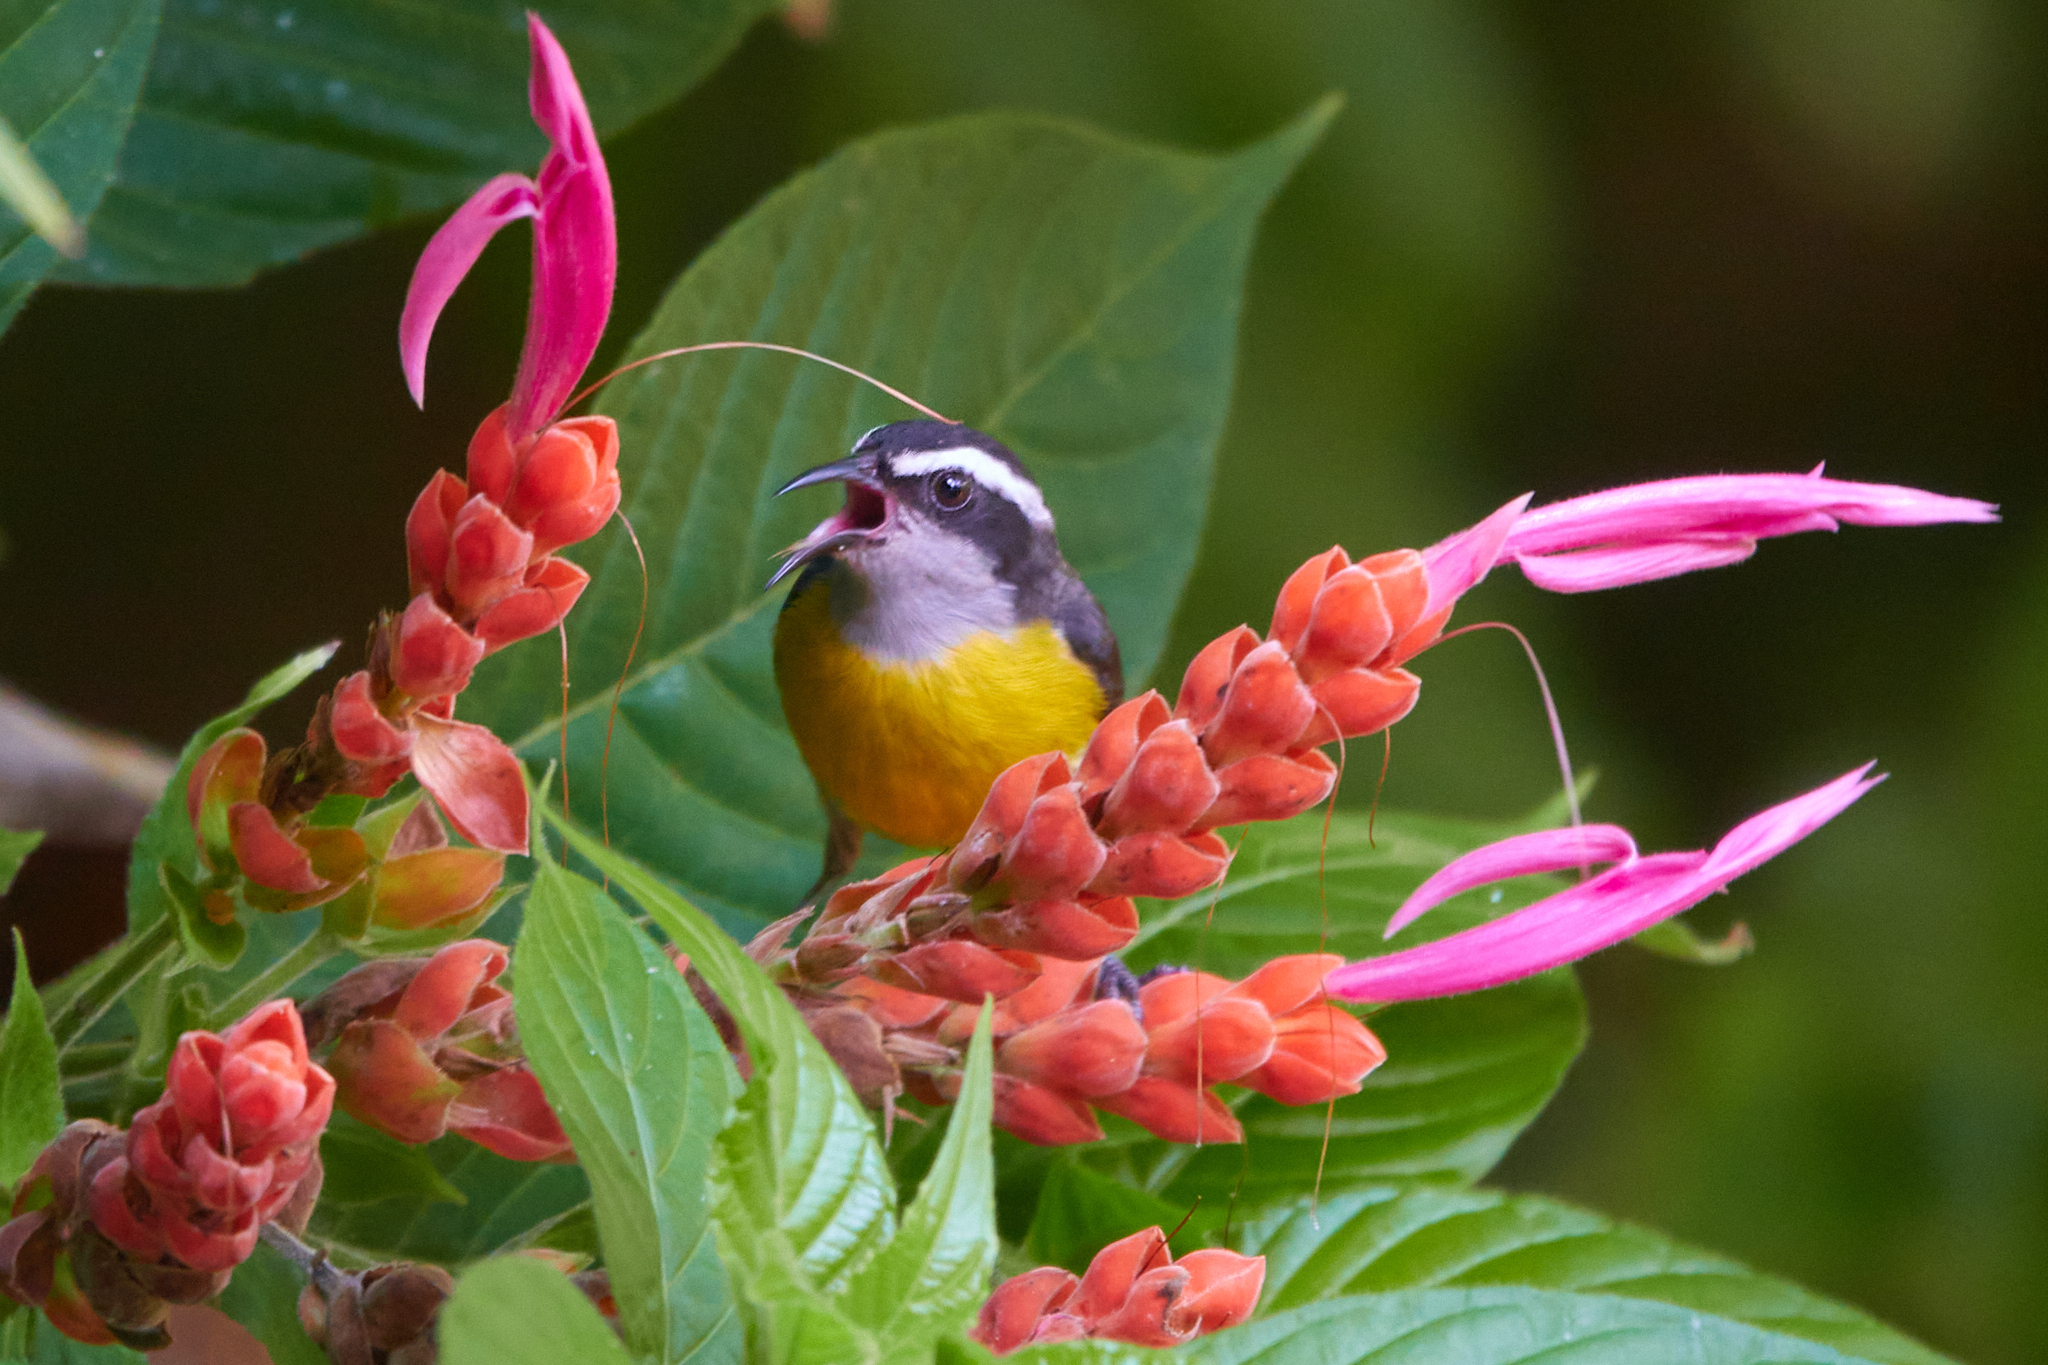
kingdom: Animalia
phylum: Chordata
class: Aves
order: Passeriformes
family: Thraupidae
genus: Coereba
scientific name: Coereba flaveola
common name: Bananaquit
